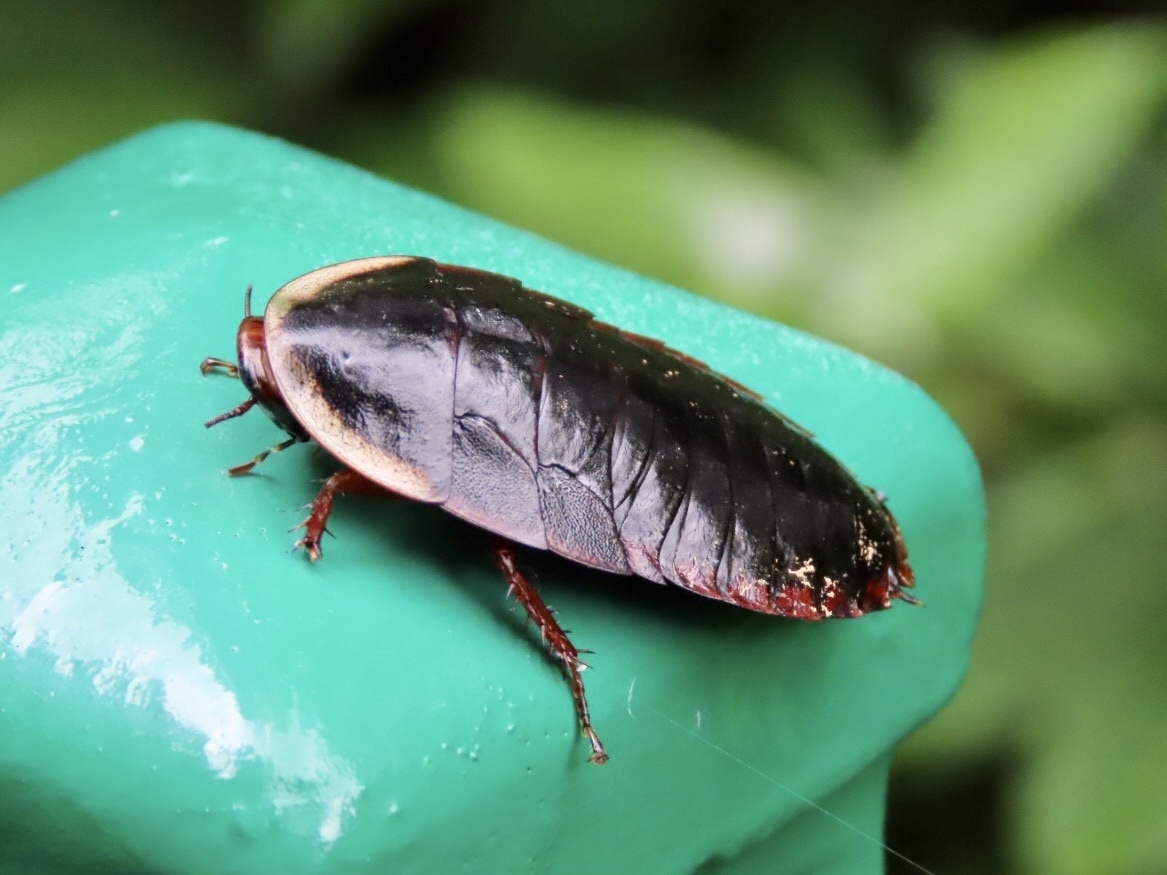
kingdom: Animalia
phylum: Arthropoda
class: Insecta
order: Blattodea
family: Blaberidae
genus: Opisthoplatia
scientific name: Opisthoplatia orientalis
